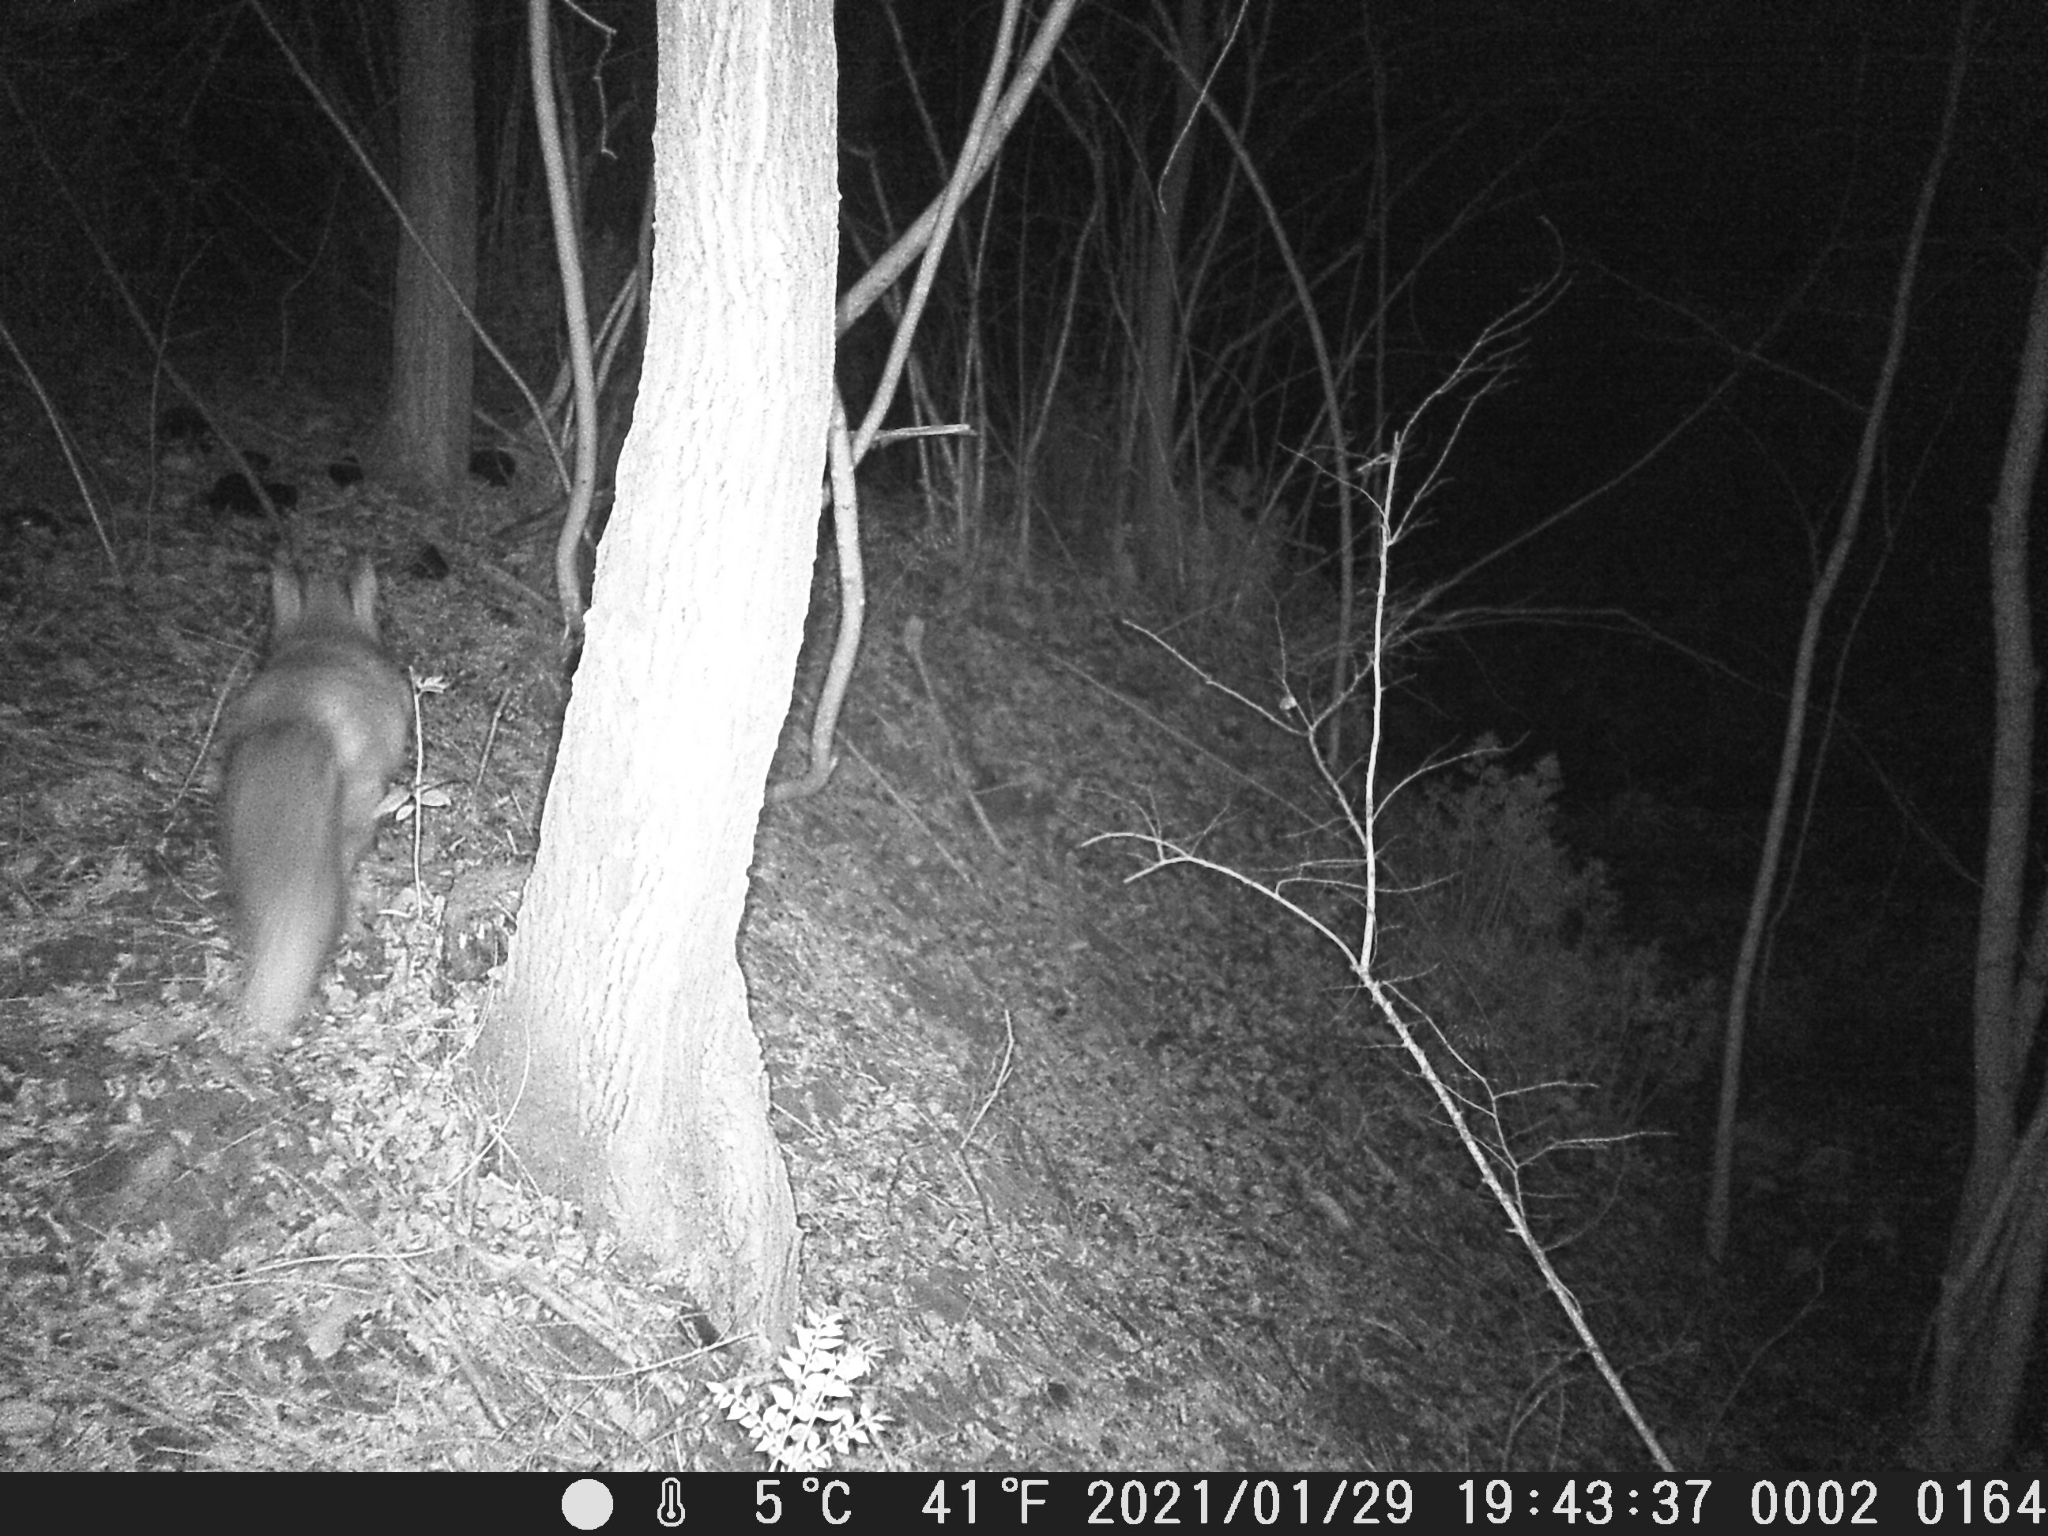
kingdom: Animalia
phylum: Chordata
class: Mammalia
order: Carnivora
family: Canidae
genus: Vulpes
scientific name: Vulpes vulpes
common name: Red fox
